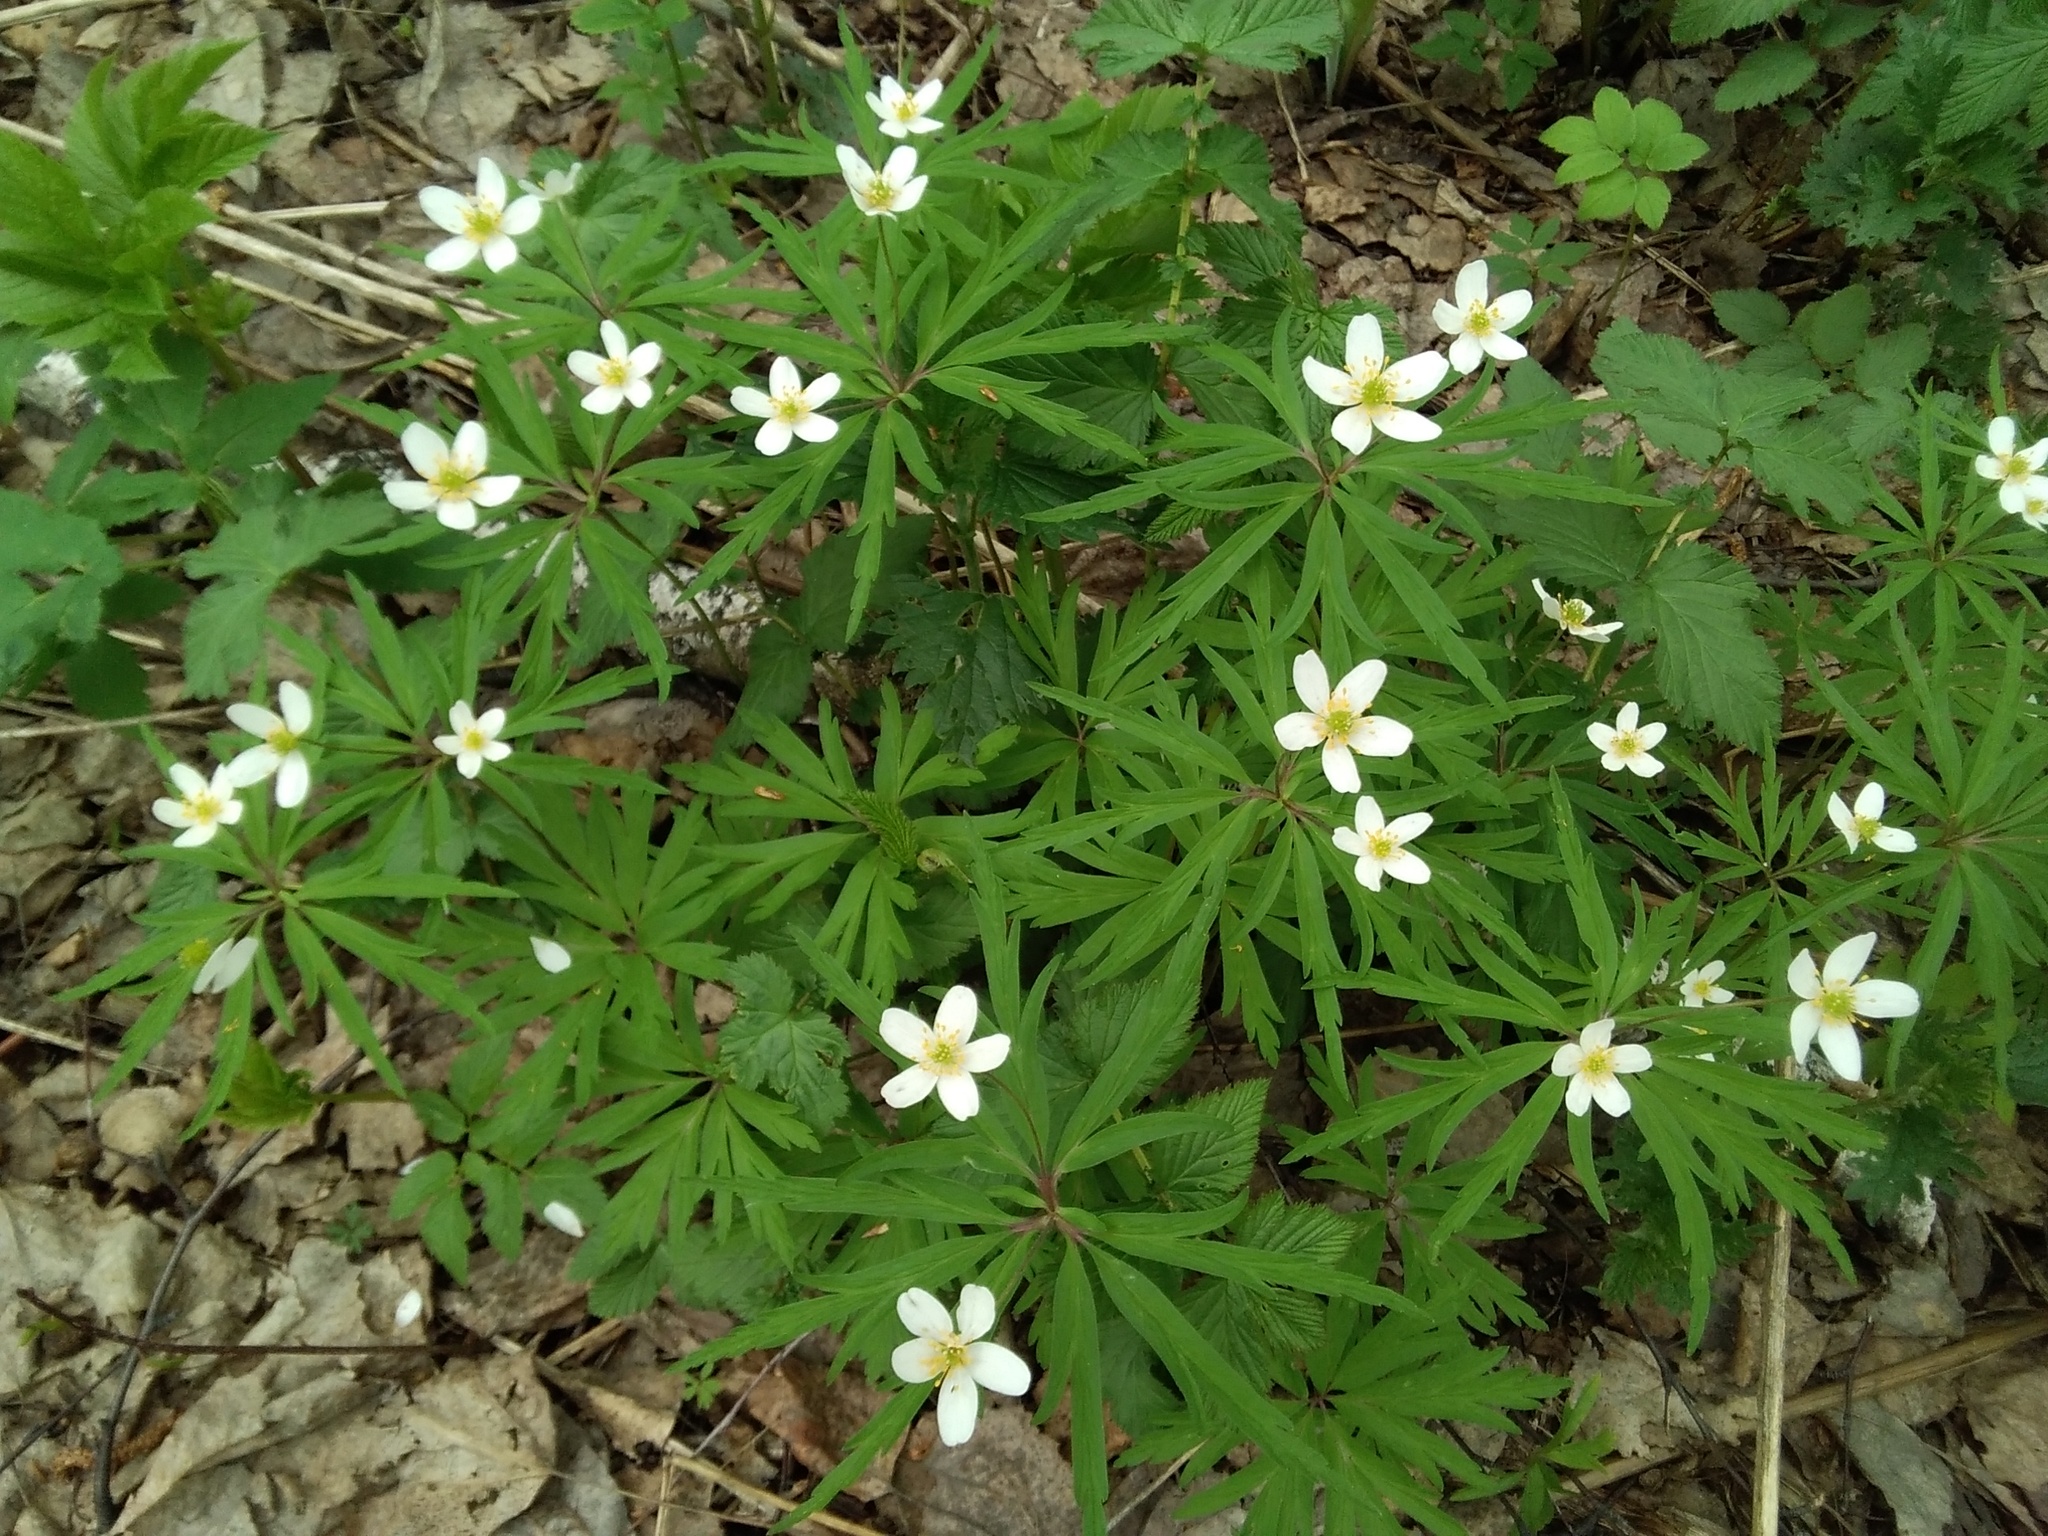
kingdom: Plantae
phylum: Tracheophyta
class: Magnoliopsida
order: Ranunculales
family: Ranunculaceae
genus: Anemone
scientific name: Anemone caerulea
